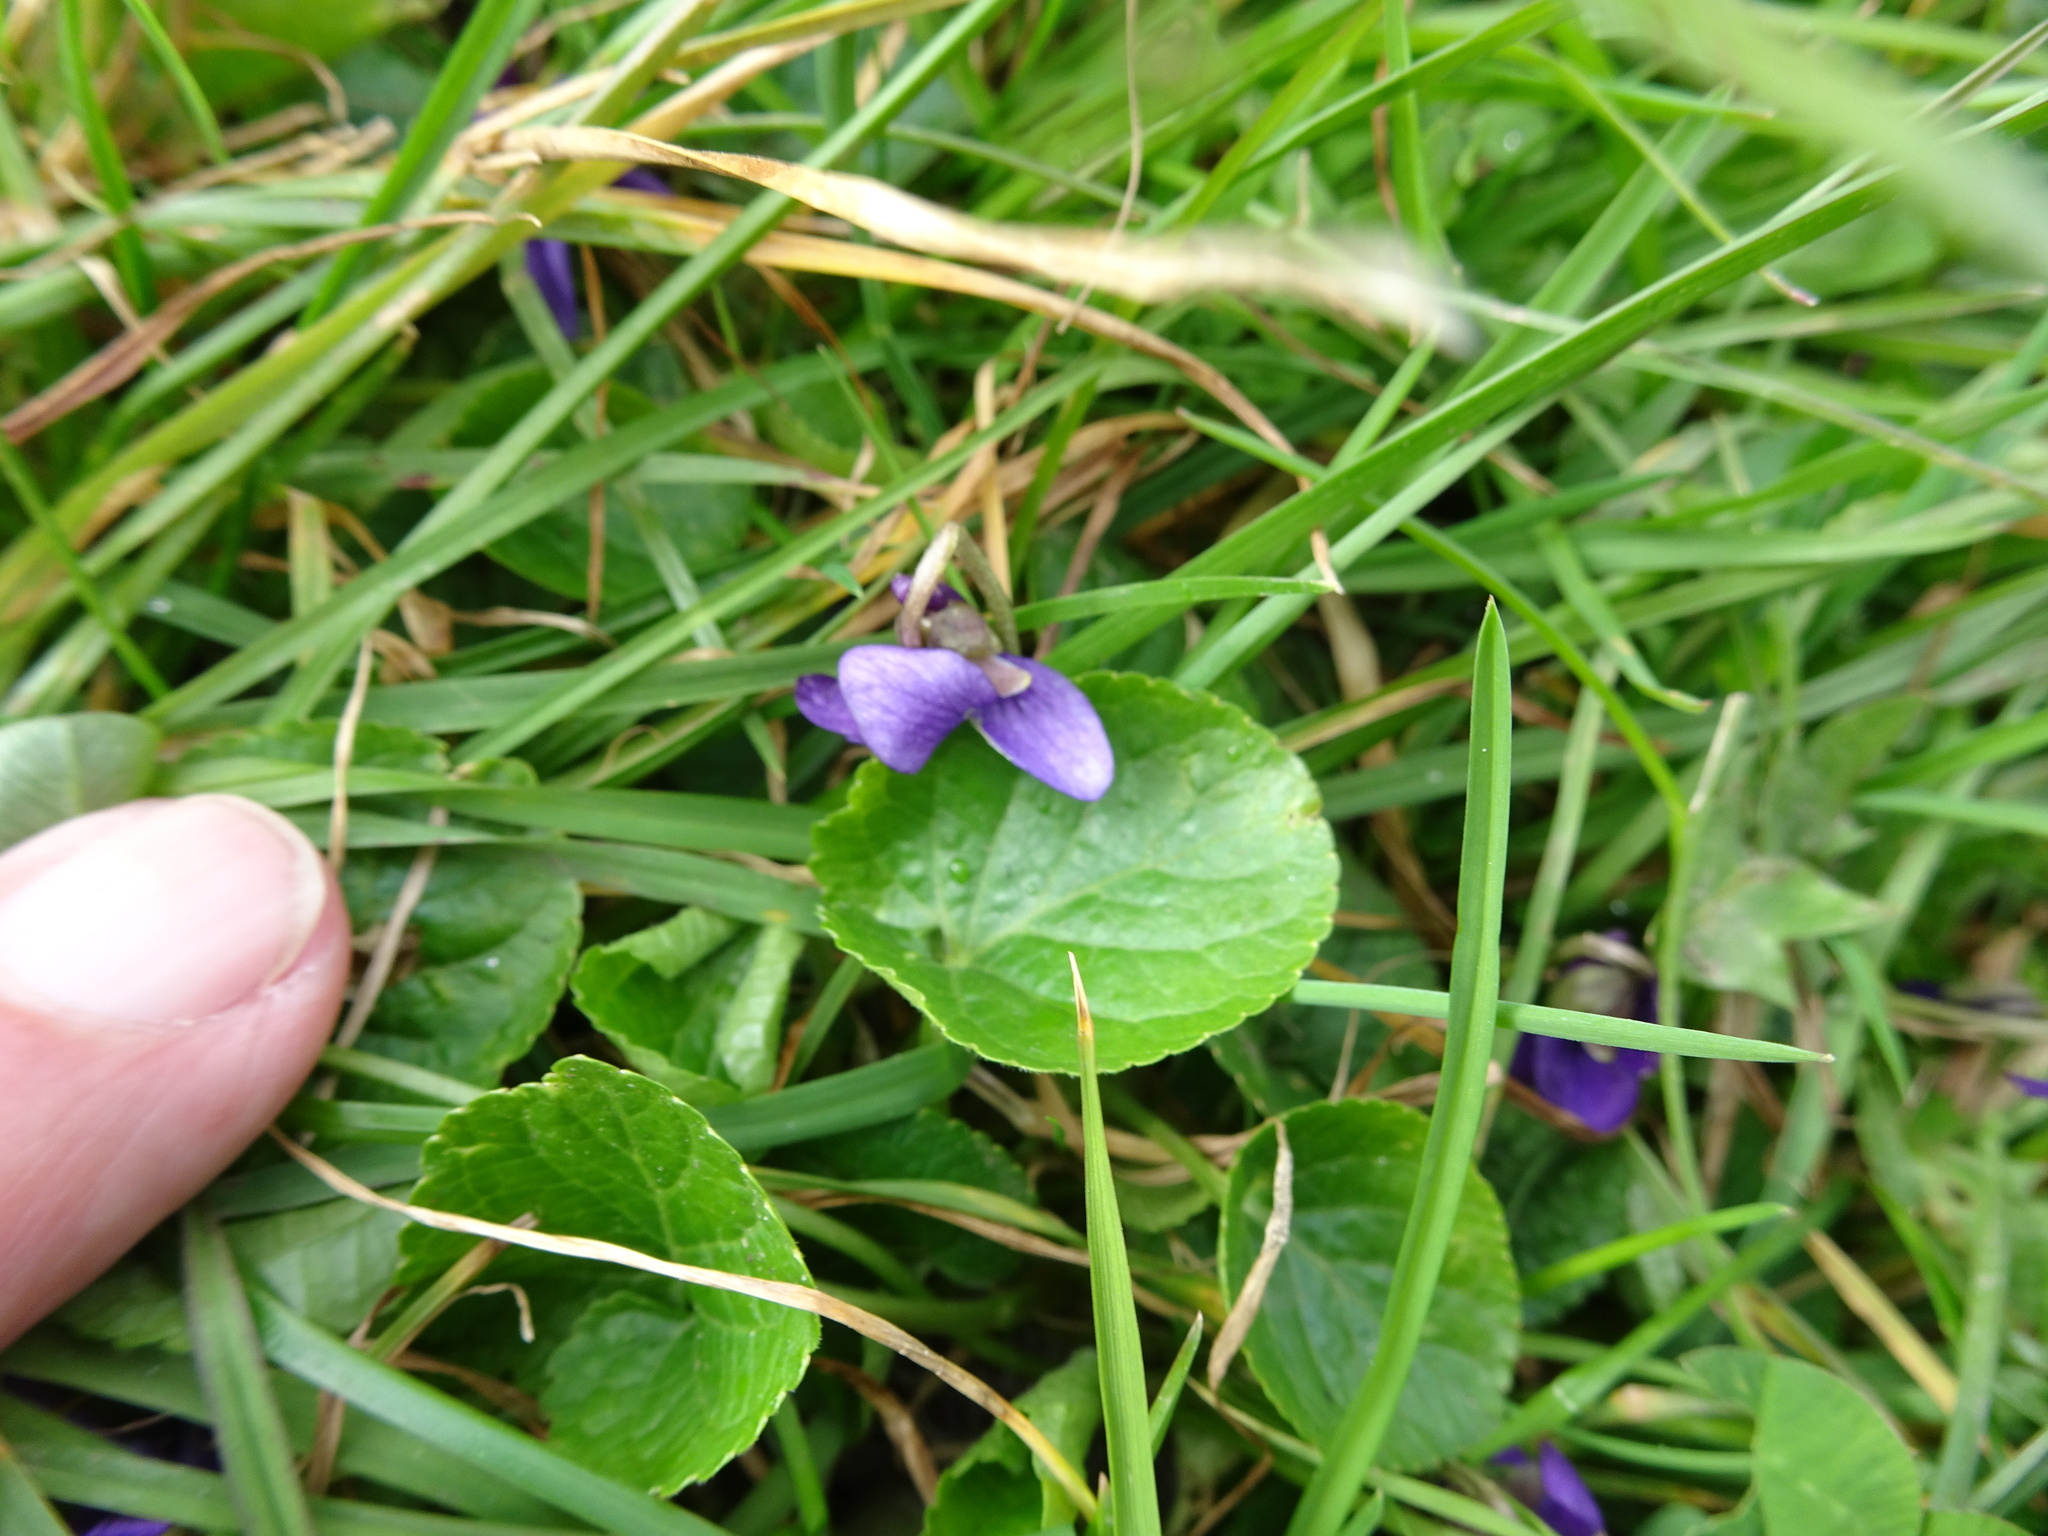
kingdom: Plantae
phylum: Tracheophyta
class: Magnoliopsida
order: Malpighiales
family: Violaceae
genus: Viola
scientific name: Viola odorata
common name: Sweet violet
